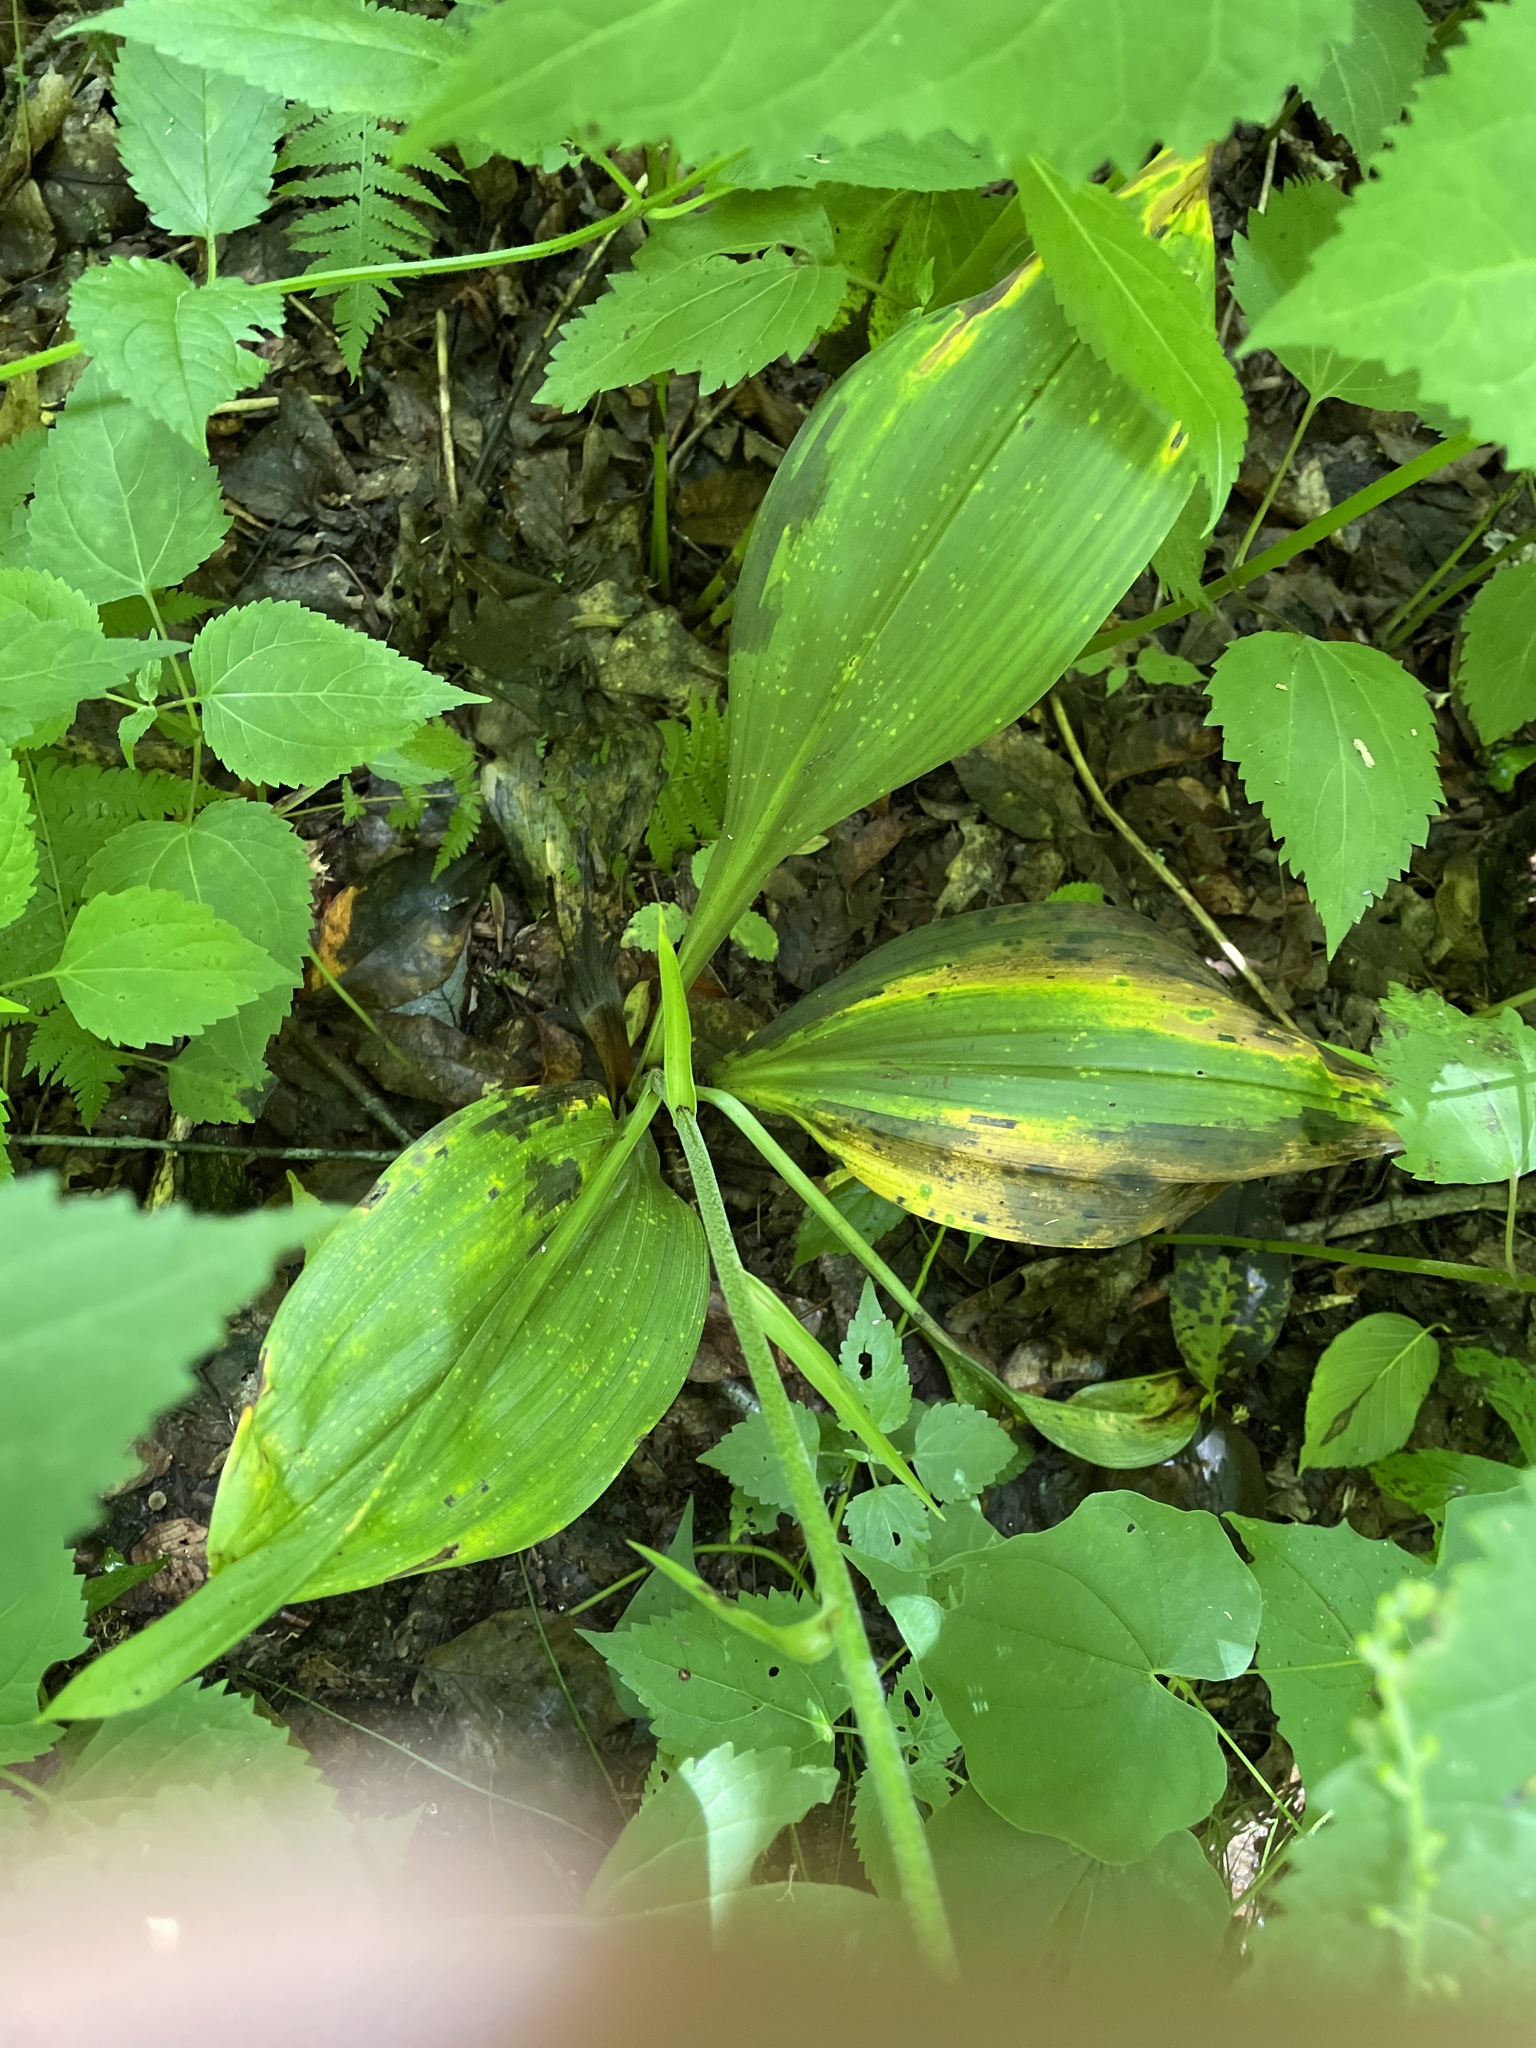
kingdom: Plantae
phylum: Tracheophyta
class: Liliopsida
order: Liliales
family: Melanthiaceae
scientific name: Melanthiaceae
